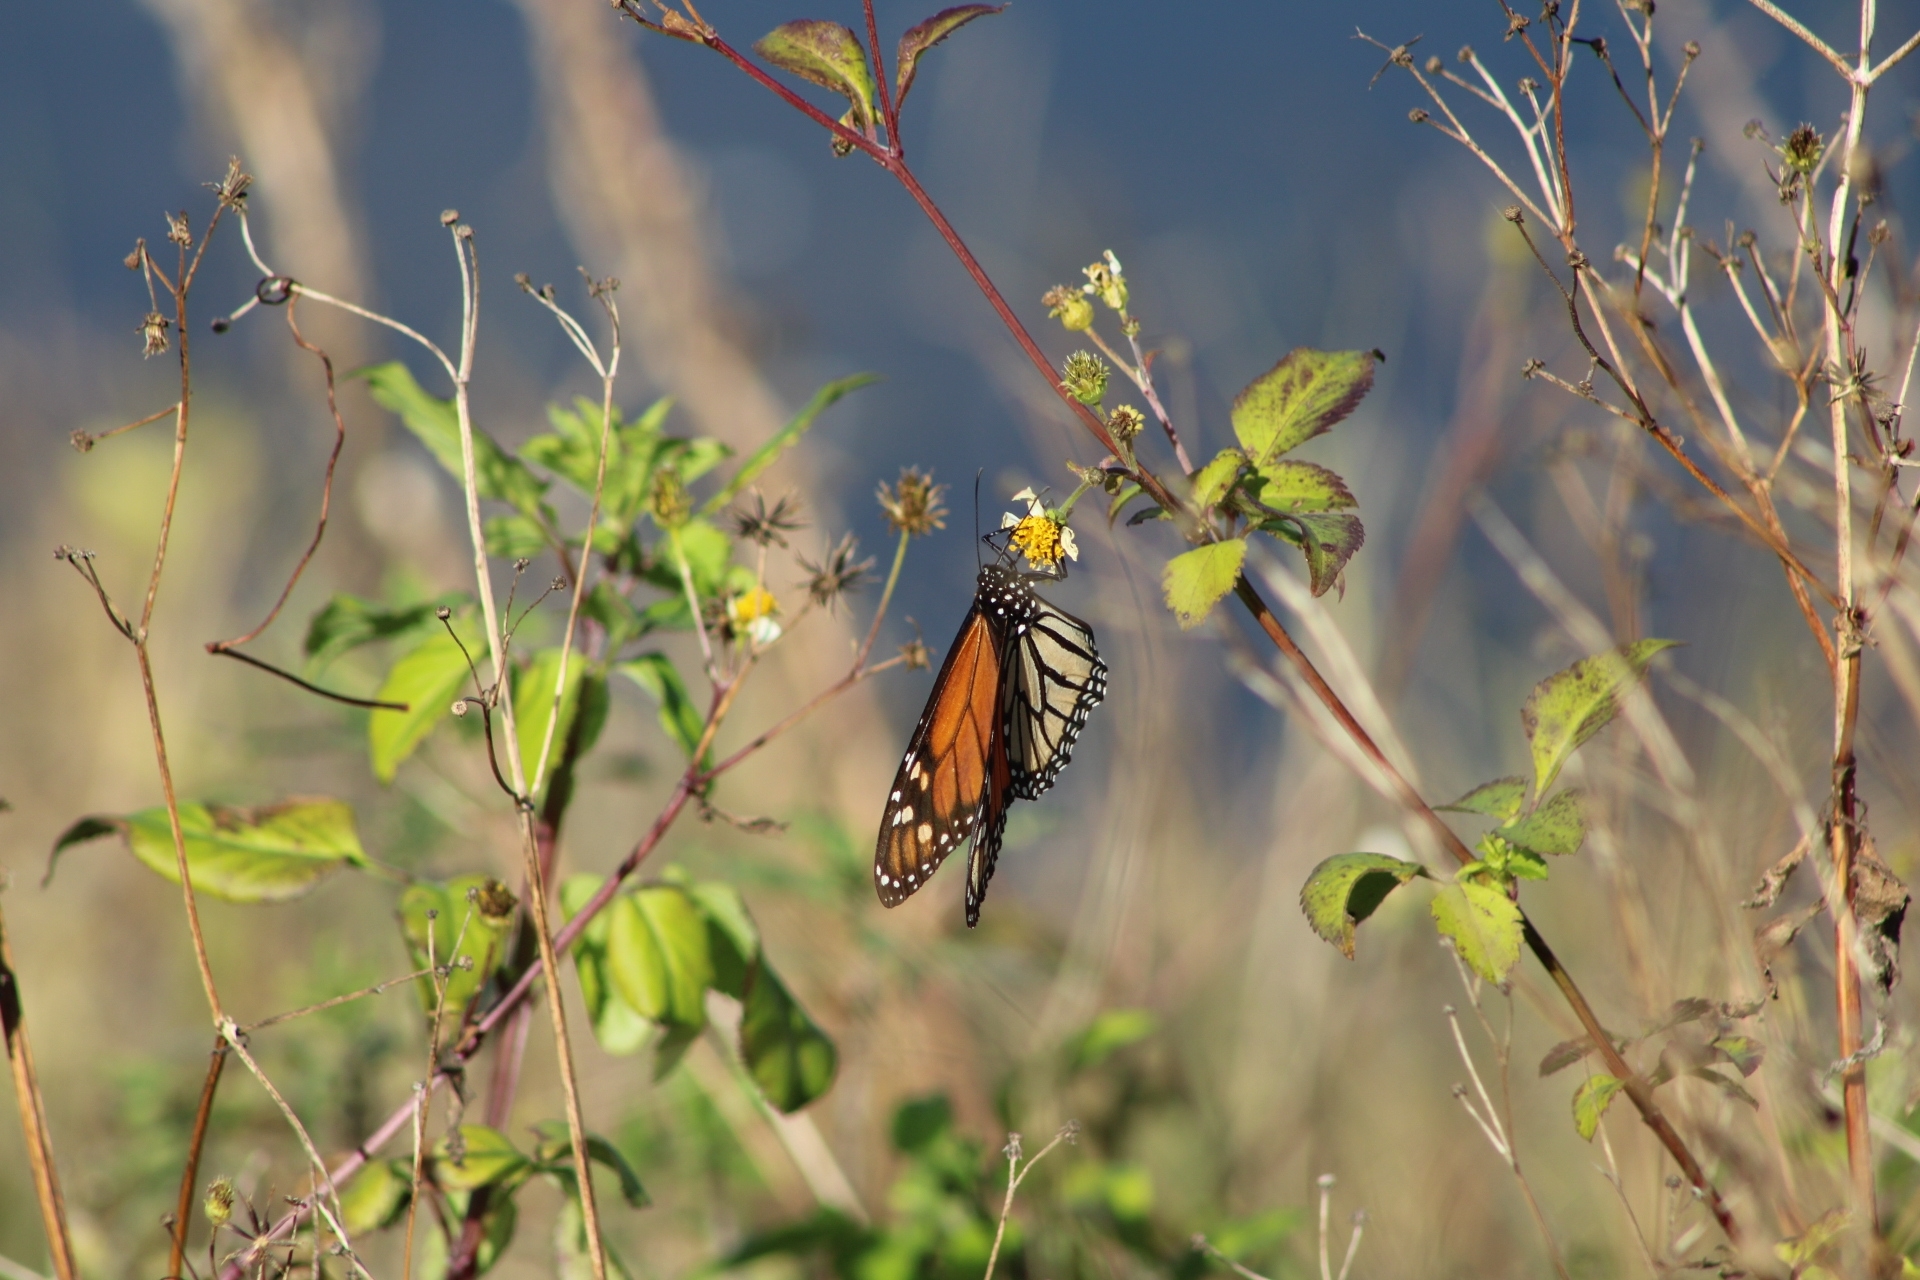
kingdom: Animalia
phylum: Arthropoda
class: Insecta
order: Lepidoptera
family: Nymphalidae
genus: Danaus
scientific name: Danaus plexippus
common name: Monarch
